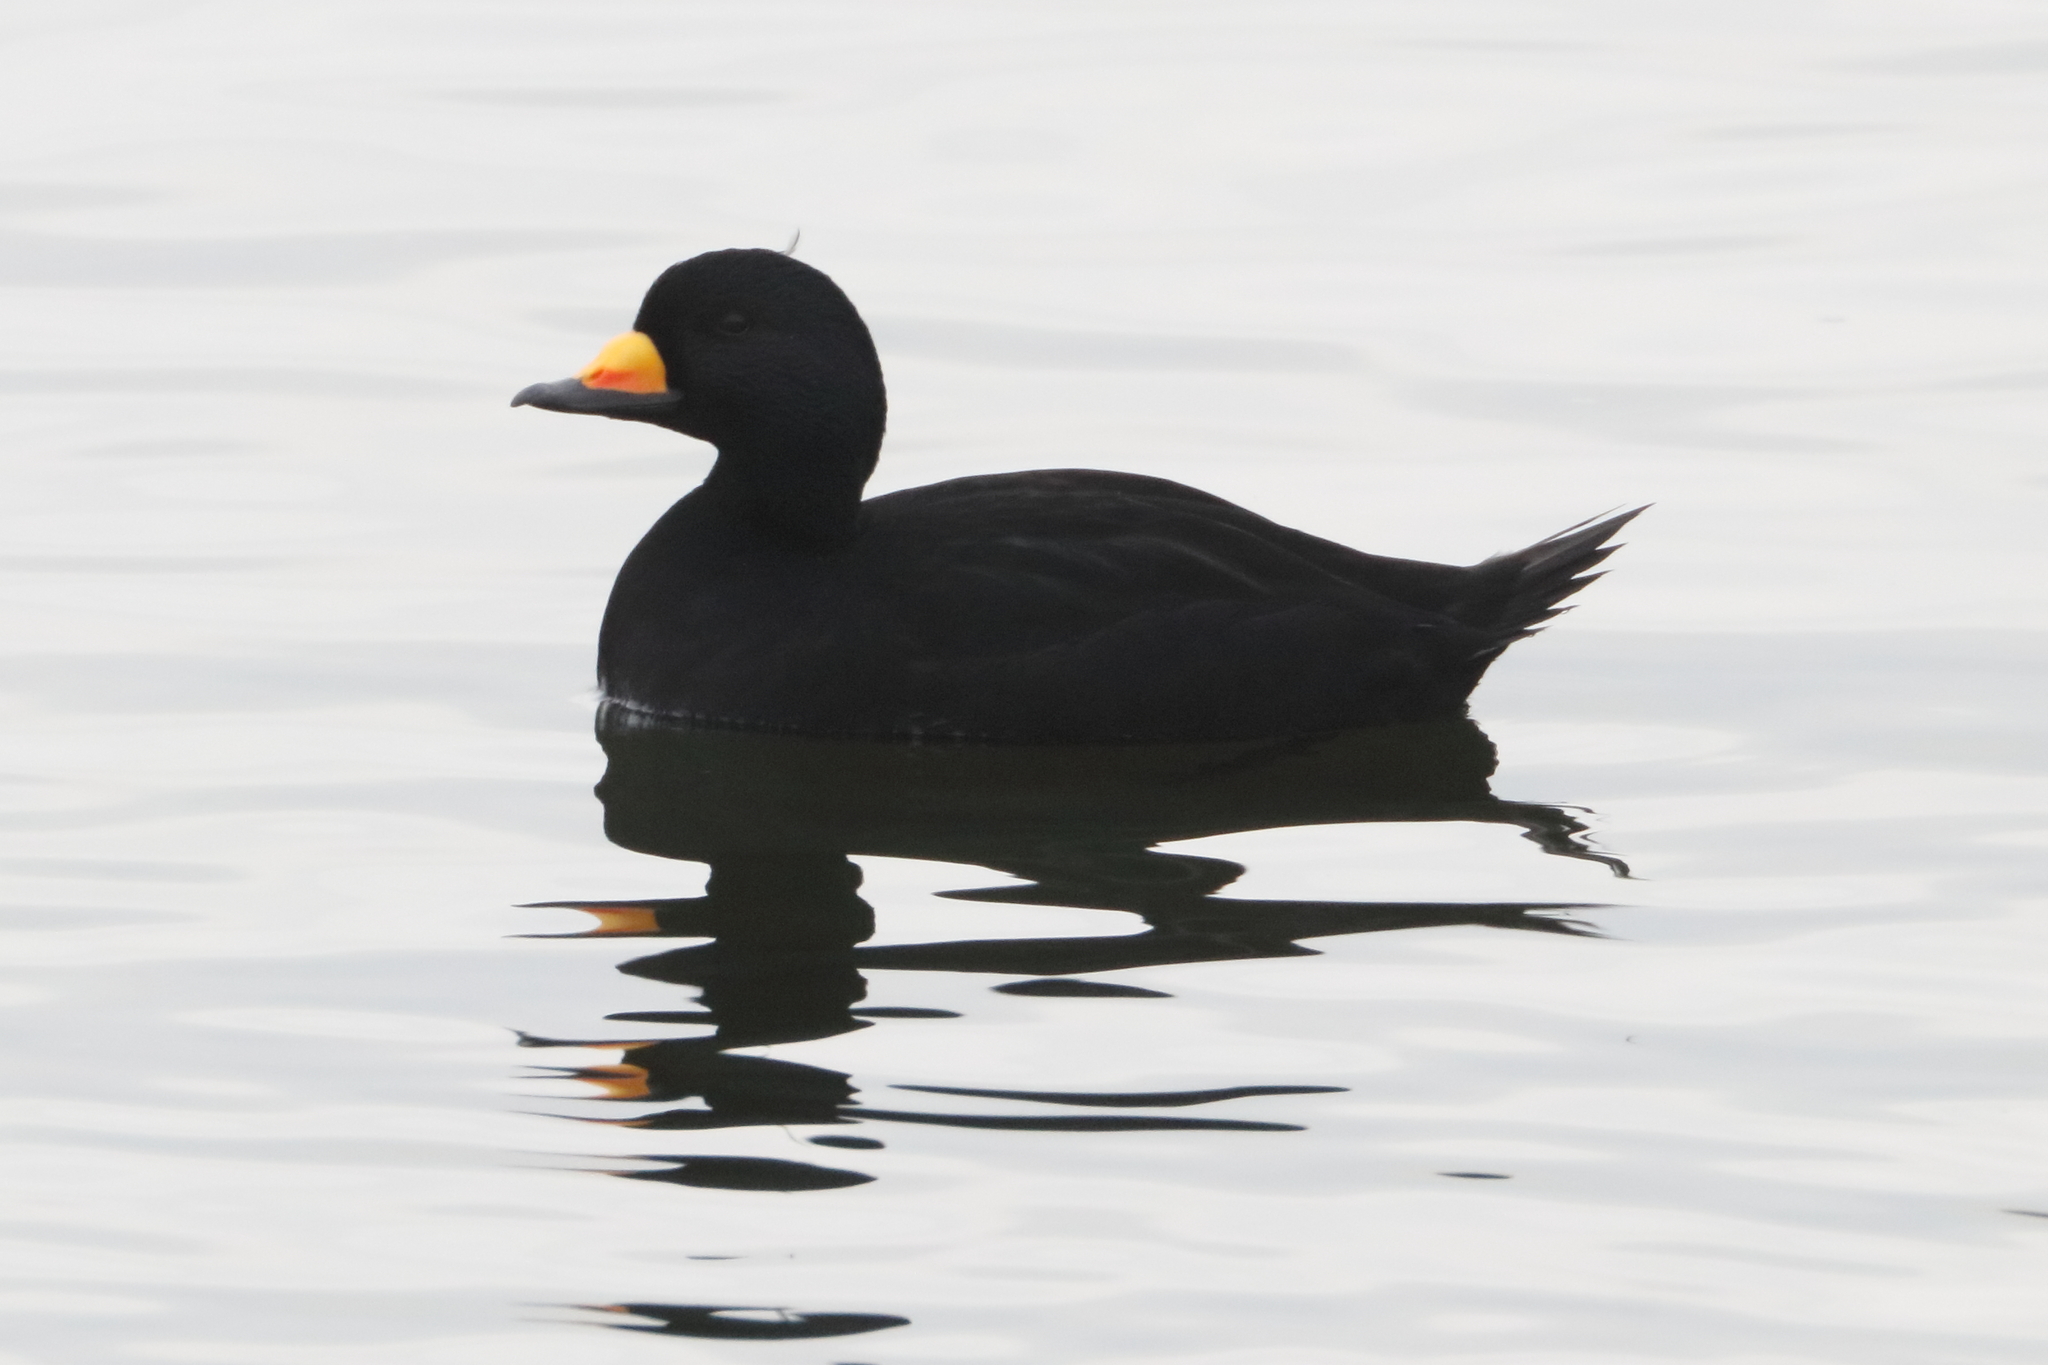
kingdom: Animalia
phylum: Chordata
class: Aves
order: Anseriformes
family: Anatidae
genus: Melanitta
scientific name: Melanitta americana
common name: Black scoter
